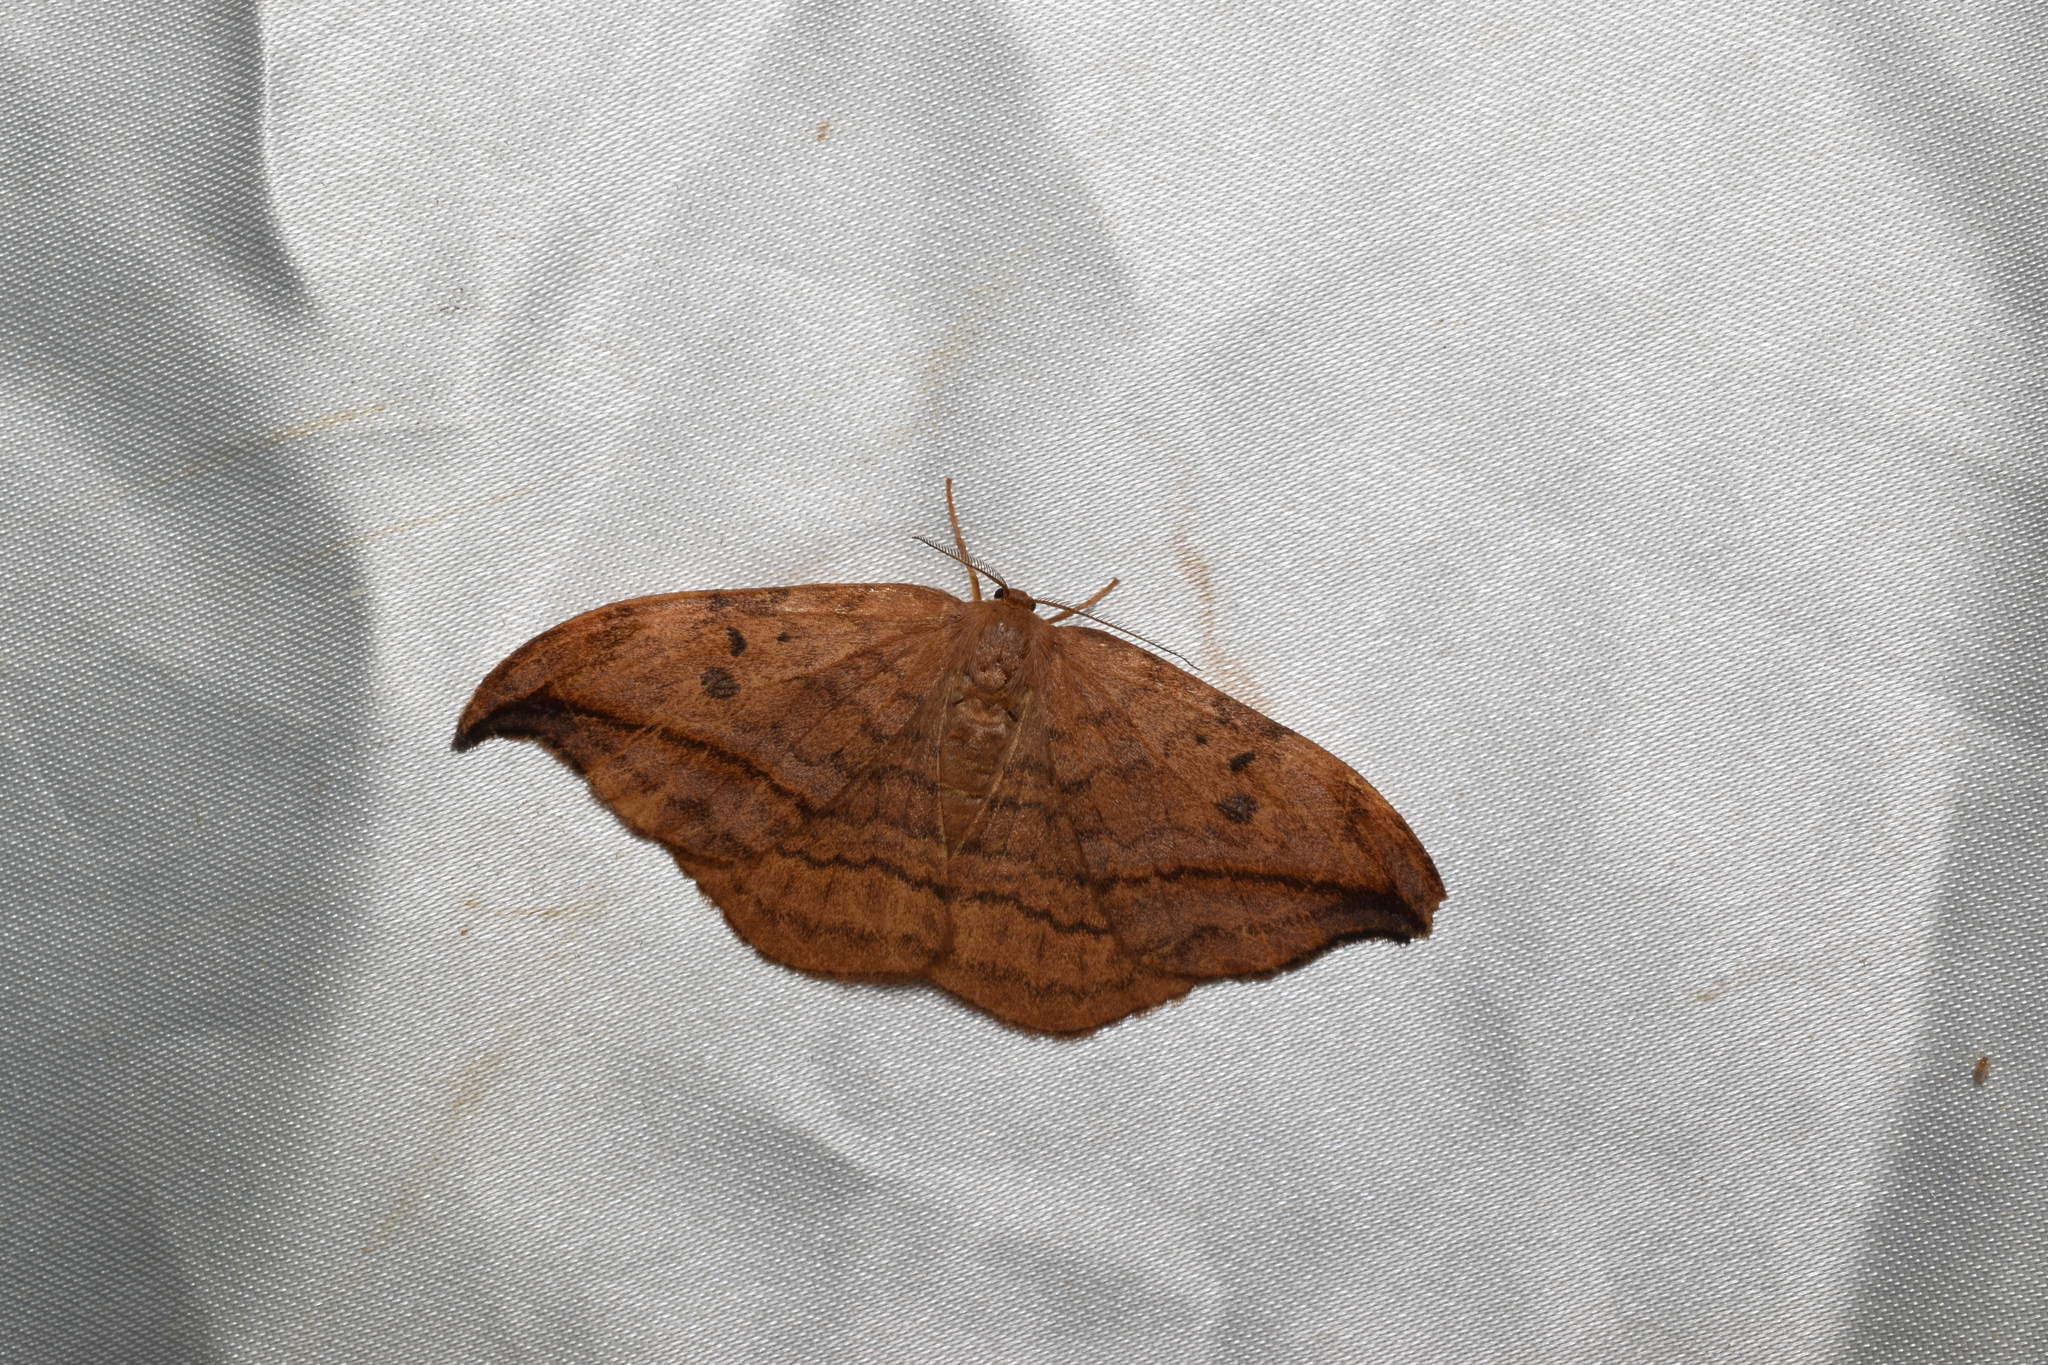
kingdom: Animalia
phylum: Arthropoda
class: Insecta
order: Lepidoptera
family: Drepanidae
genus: Drepana
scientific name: Drepana curvatula
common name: Dusky hook-tip
